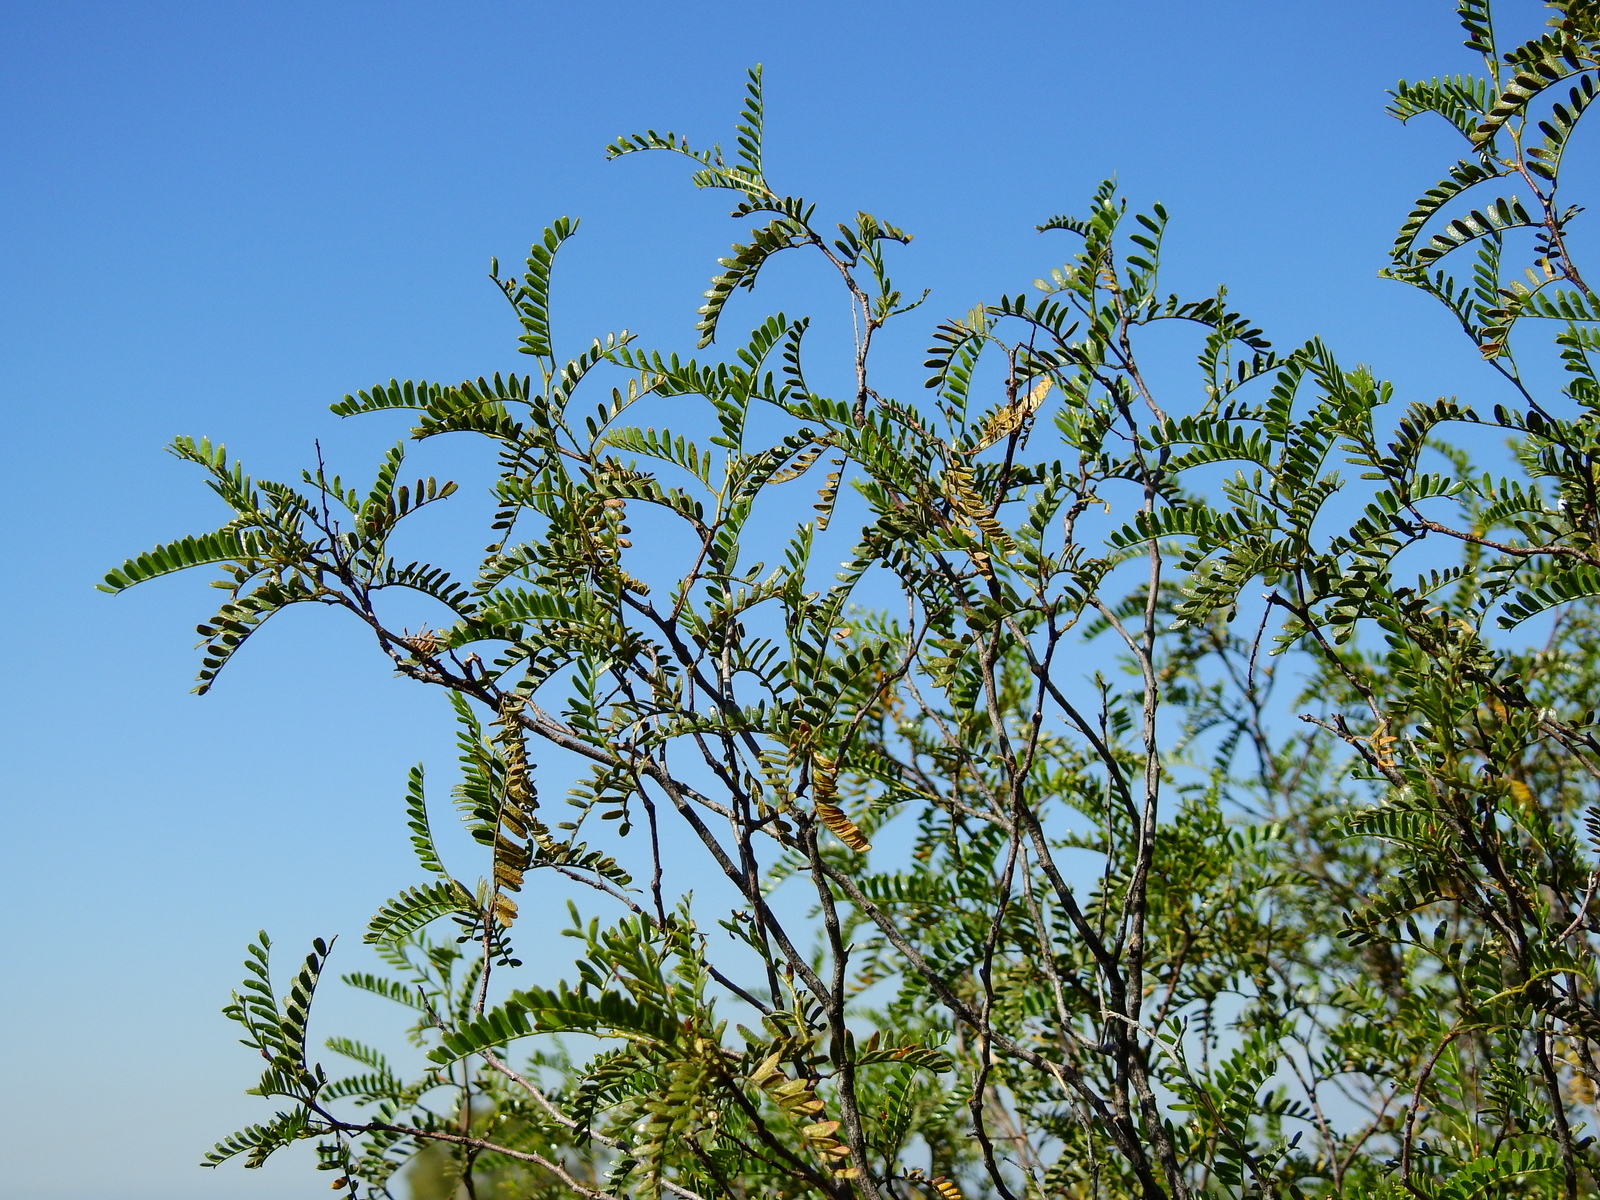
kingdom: Plantae
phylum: Tracheophyta
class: Magnoliopsida
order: Fabales
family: Fabaceae
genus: Zuccagnia
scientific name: Zuccagnia punctata
